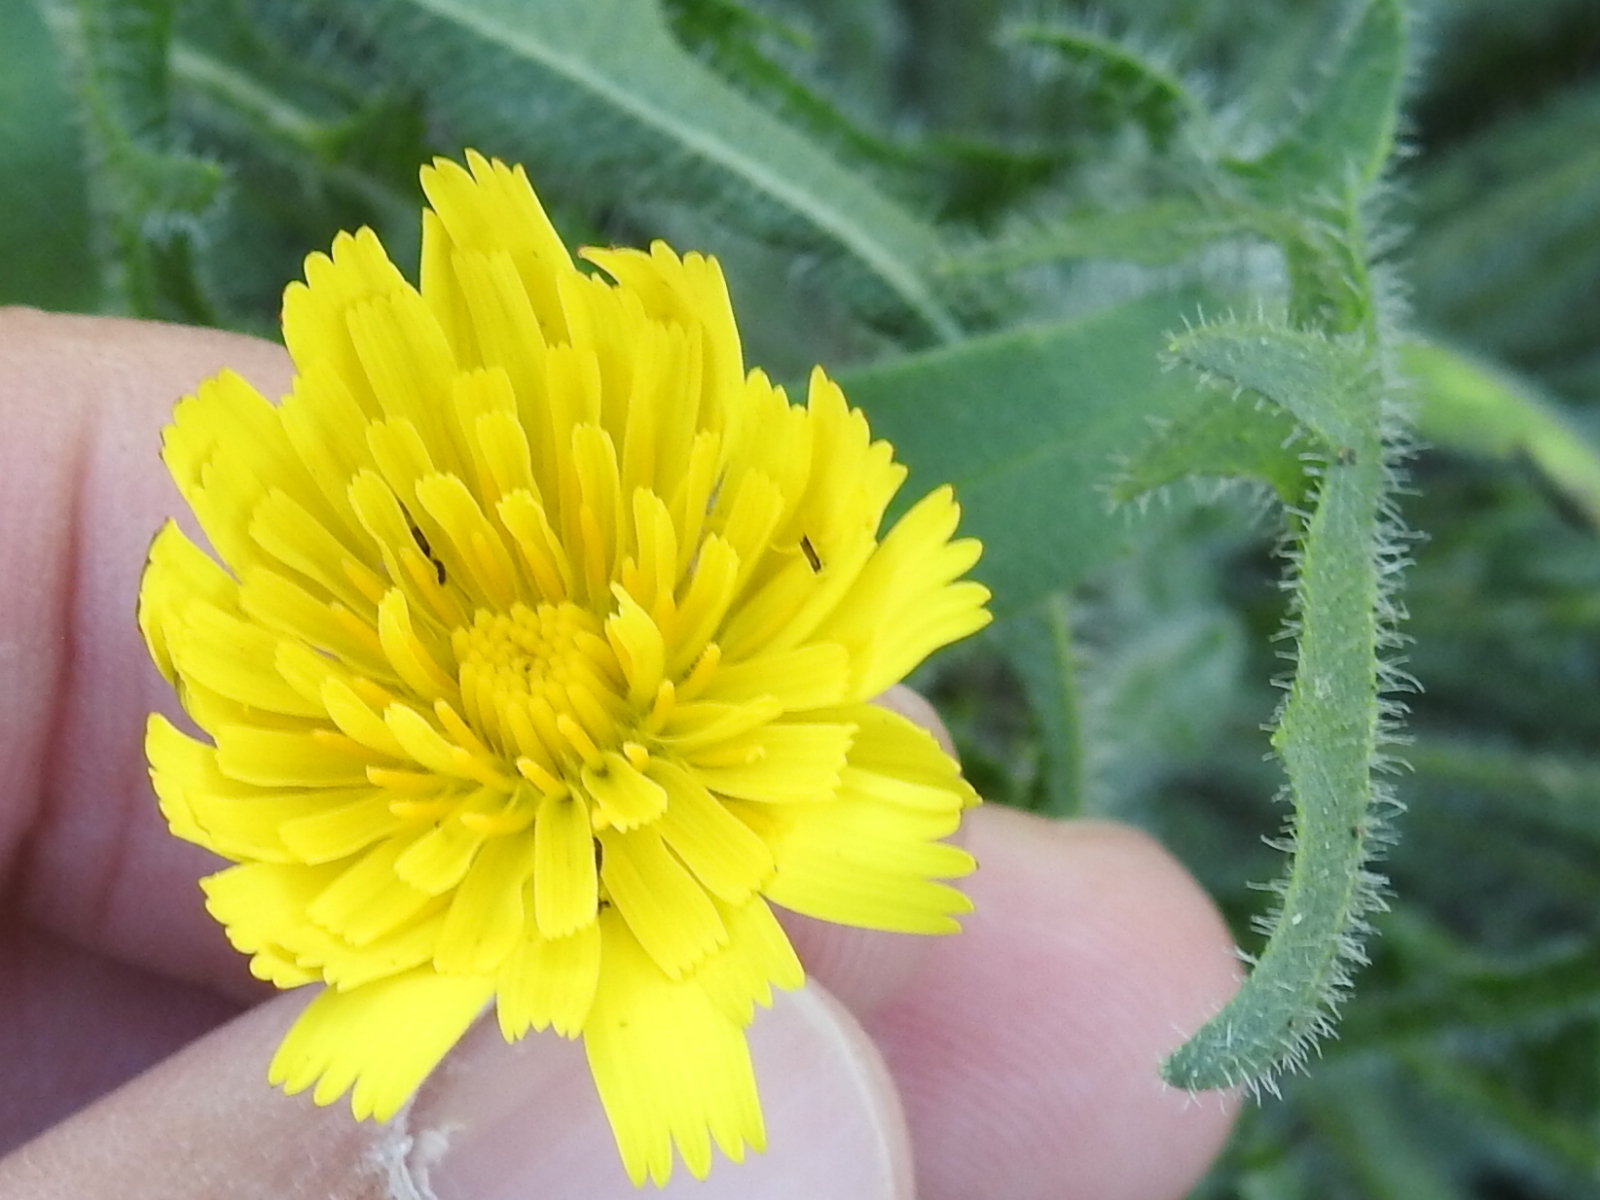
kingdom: Plantae
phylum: Tracheophyta
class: Magnoliopsida
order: Asterales
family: Asteraceae
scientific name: Asteraceae
